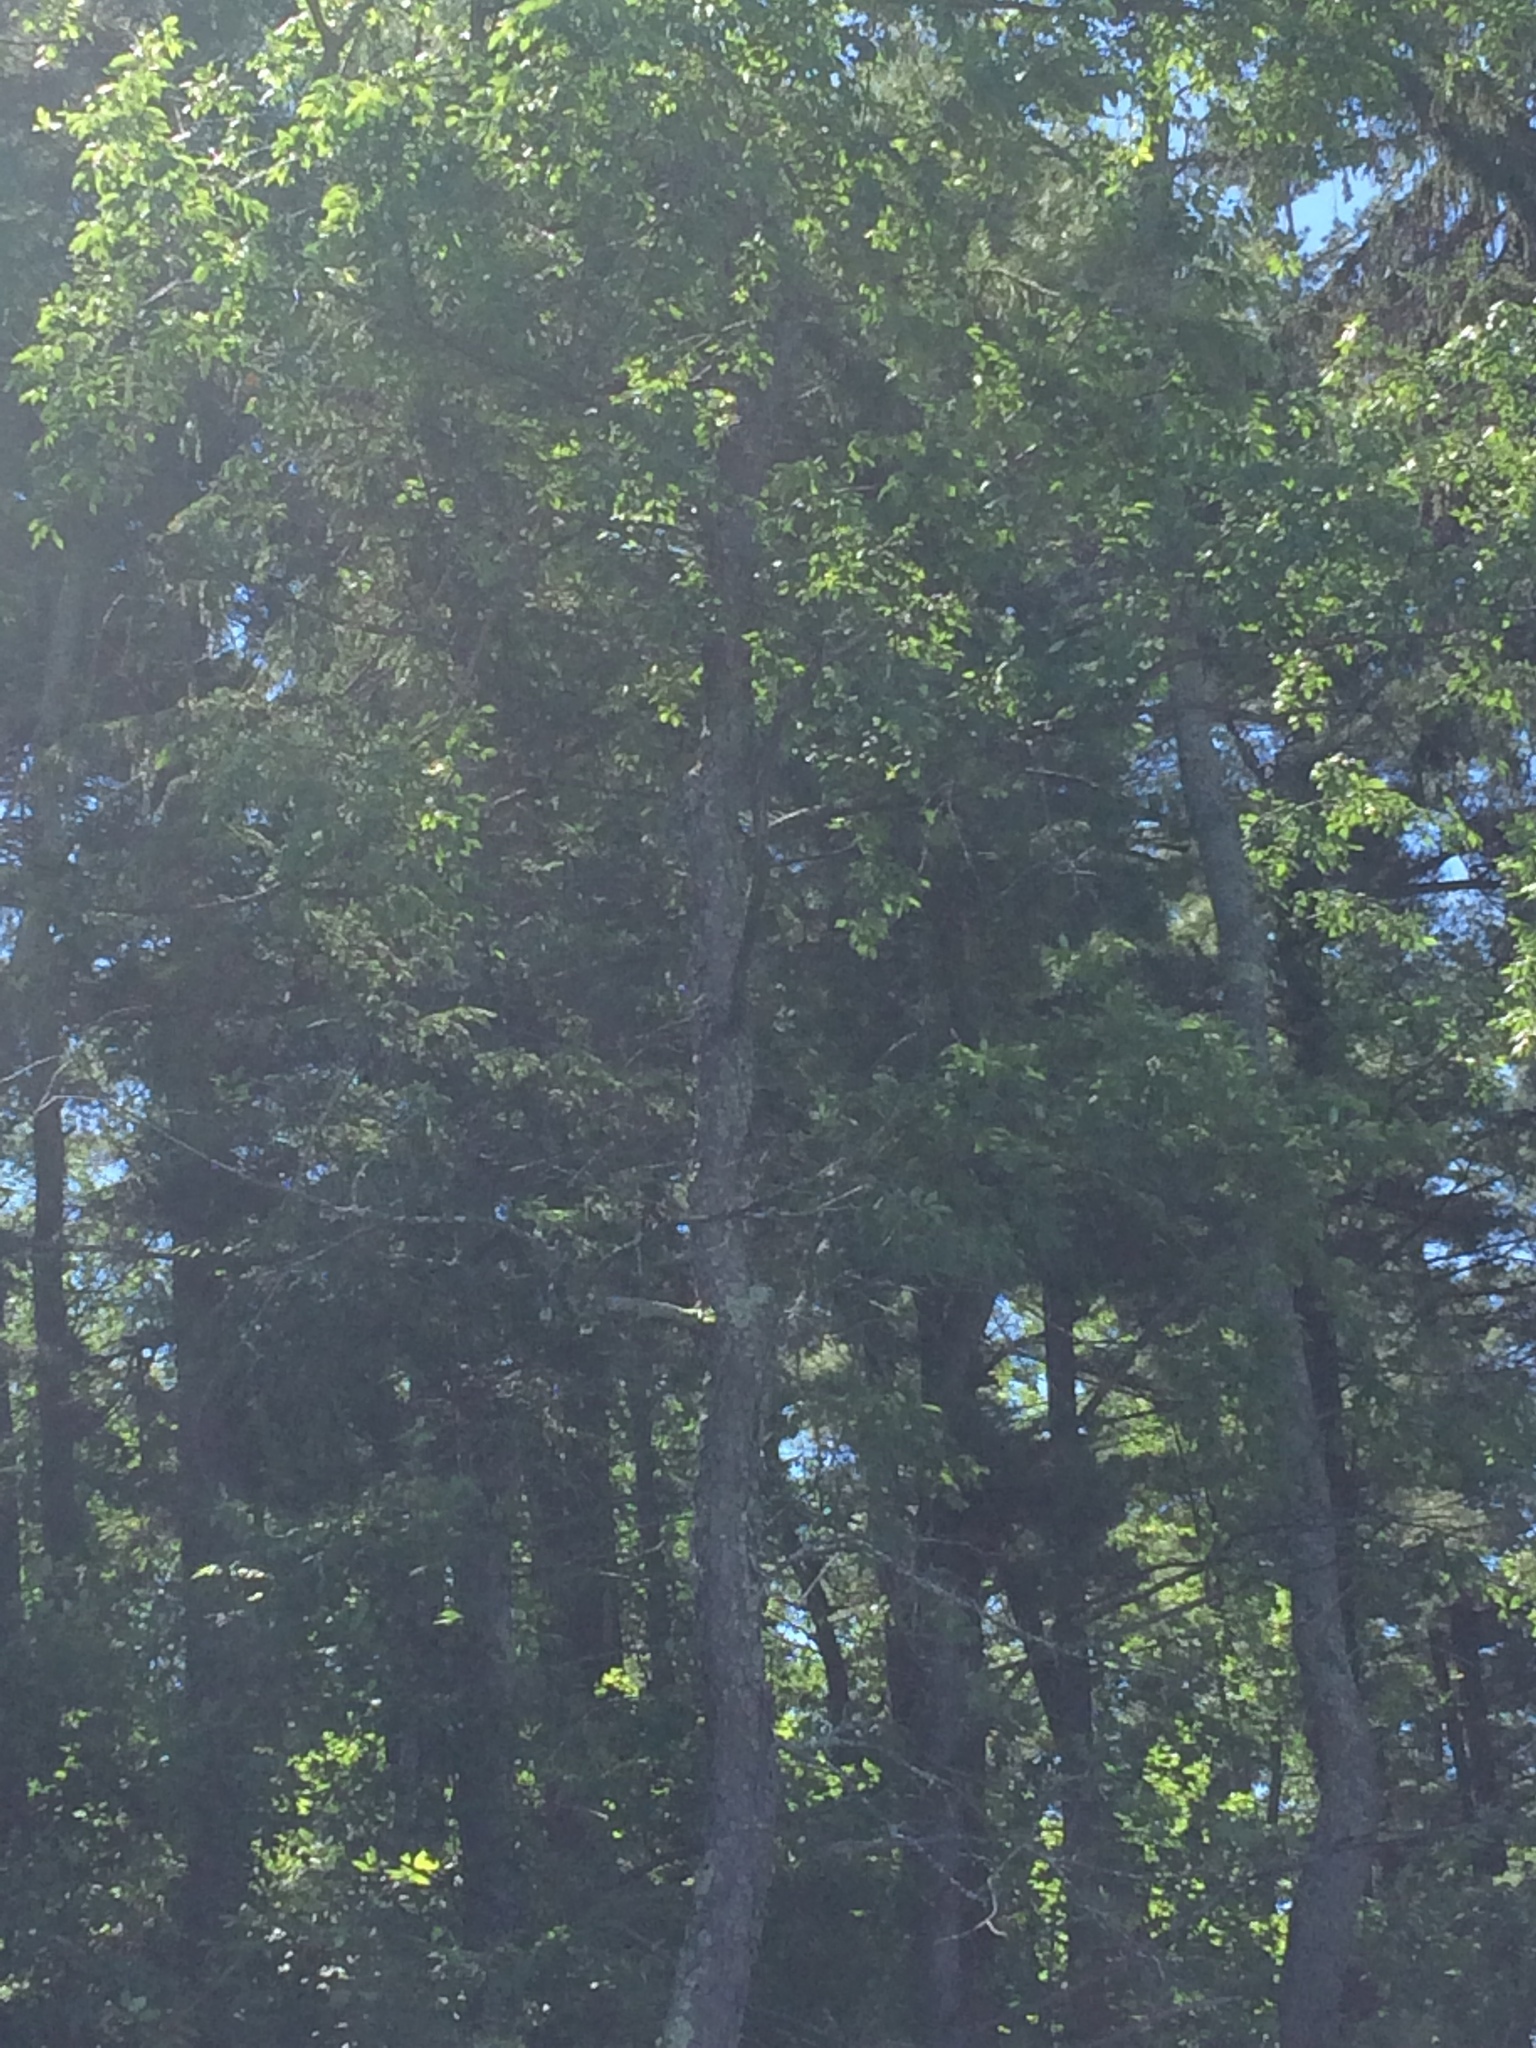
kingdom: Plantae
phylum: Tracheophyta
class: Magnoliopsida
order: Rosales
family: Rosaceae
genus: Prunus
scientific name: Prunus serotina
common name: Black cherry
